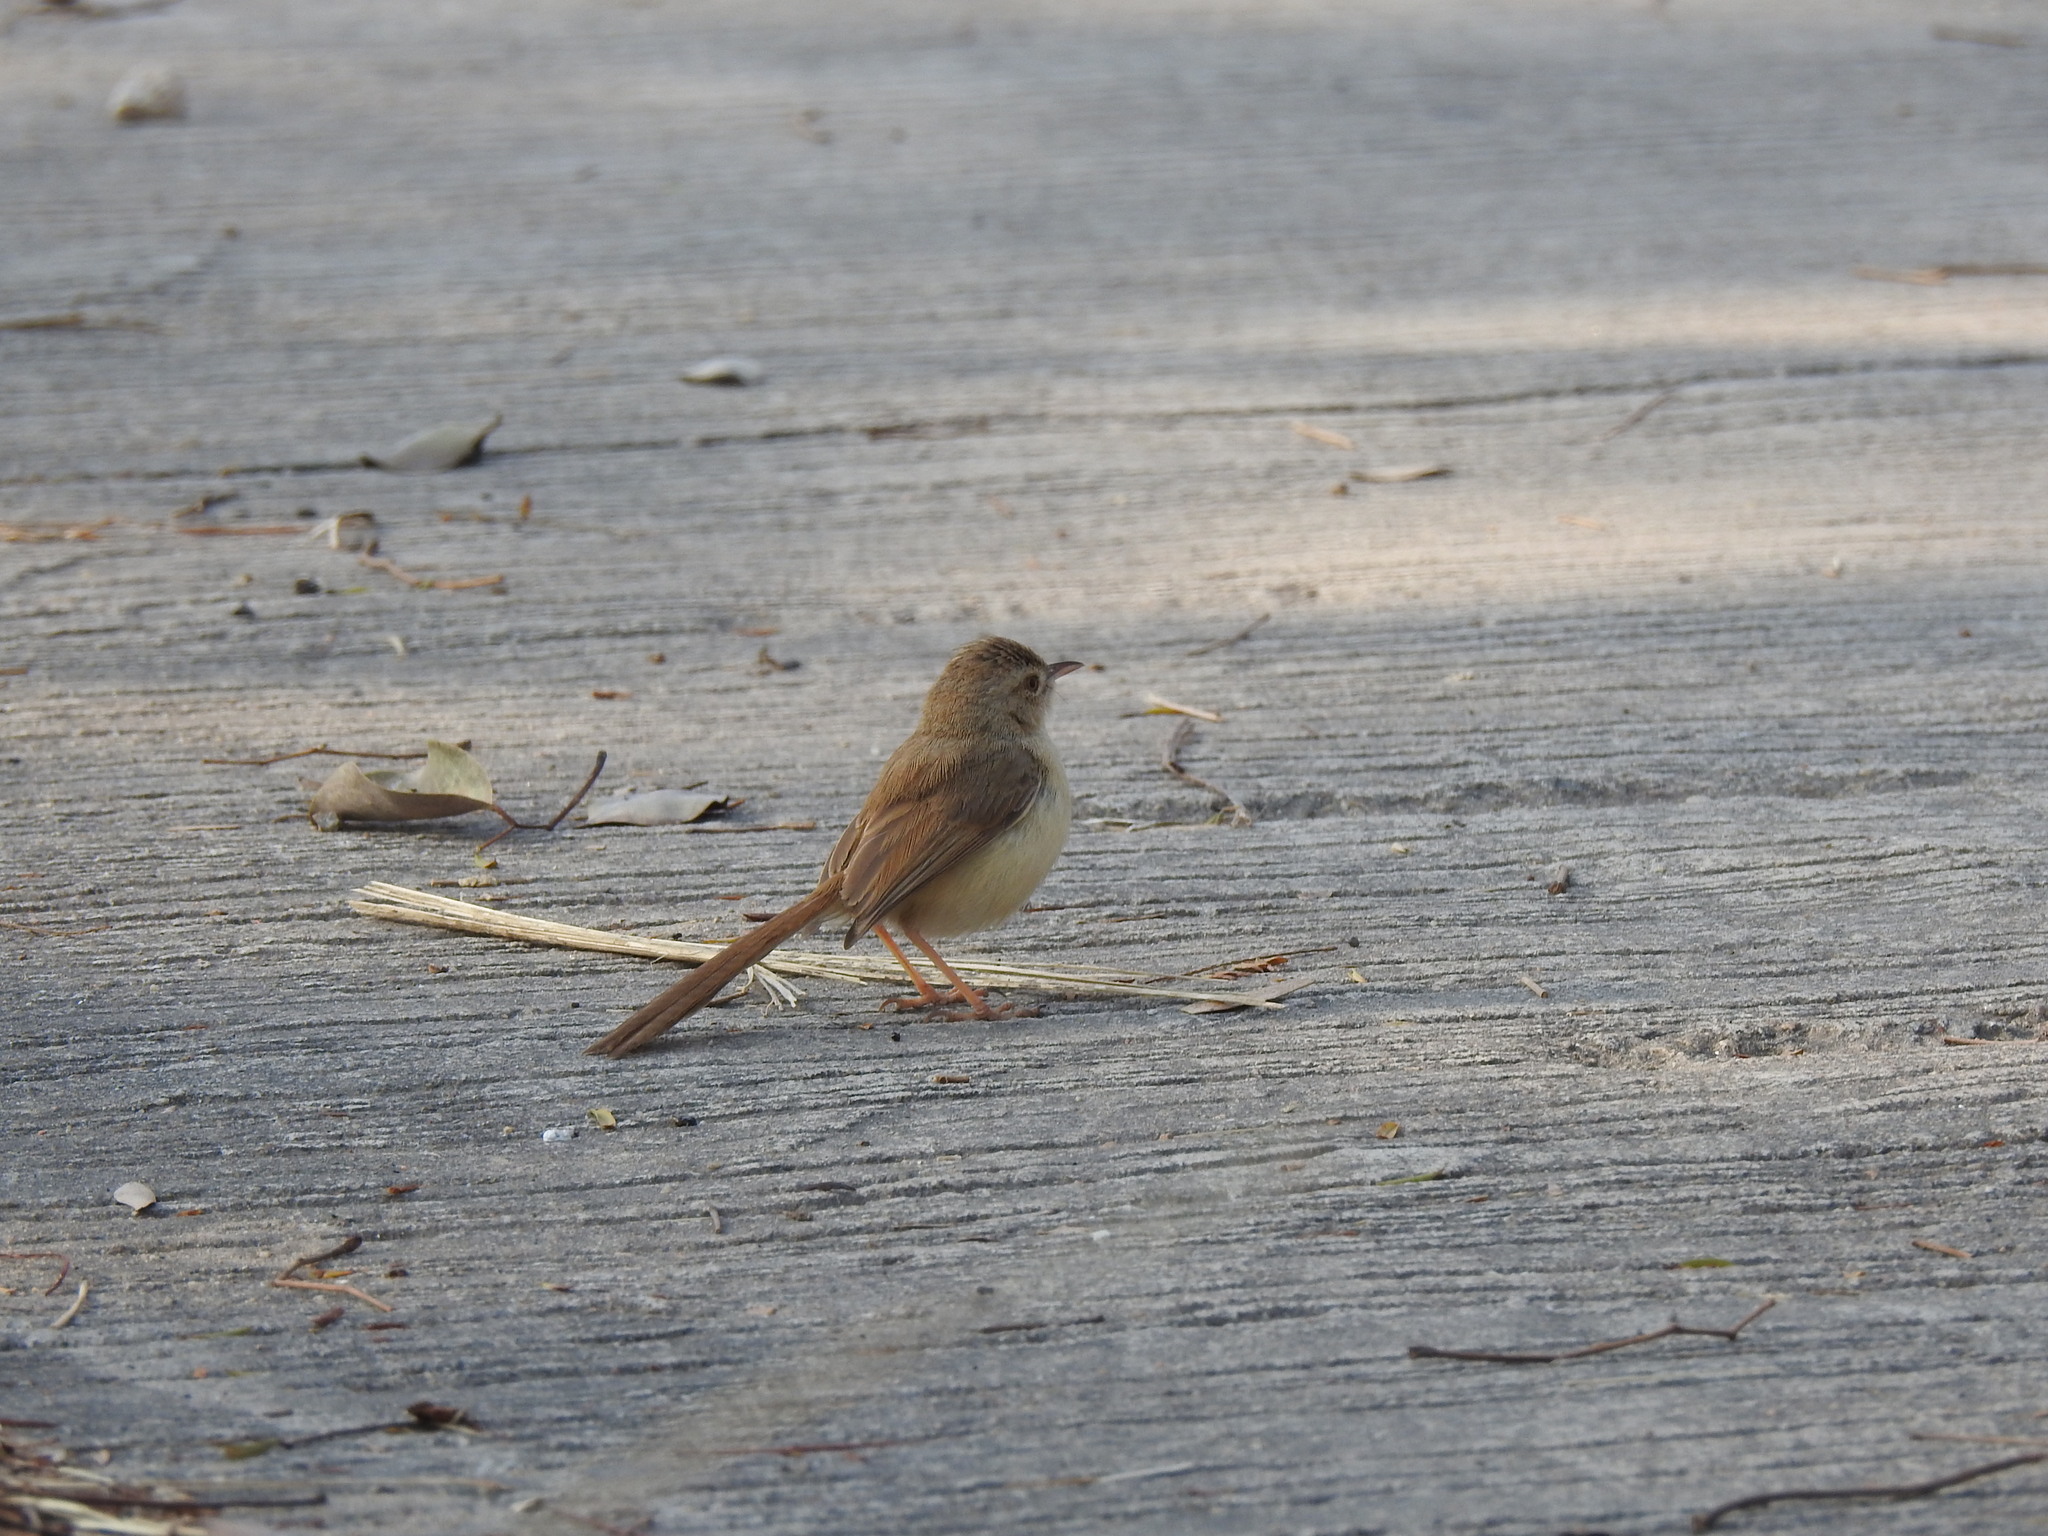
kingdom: Animalia
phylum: Chordata
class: Aves
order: Passeriformes
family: Cisticolidae
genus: Prinia
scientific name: Prinia inornata
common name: Plain prinia
